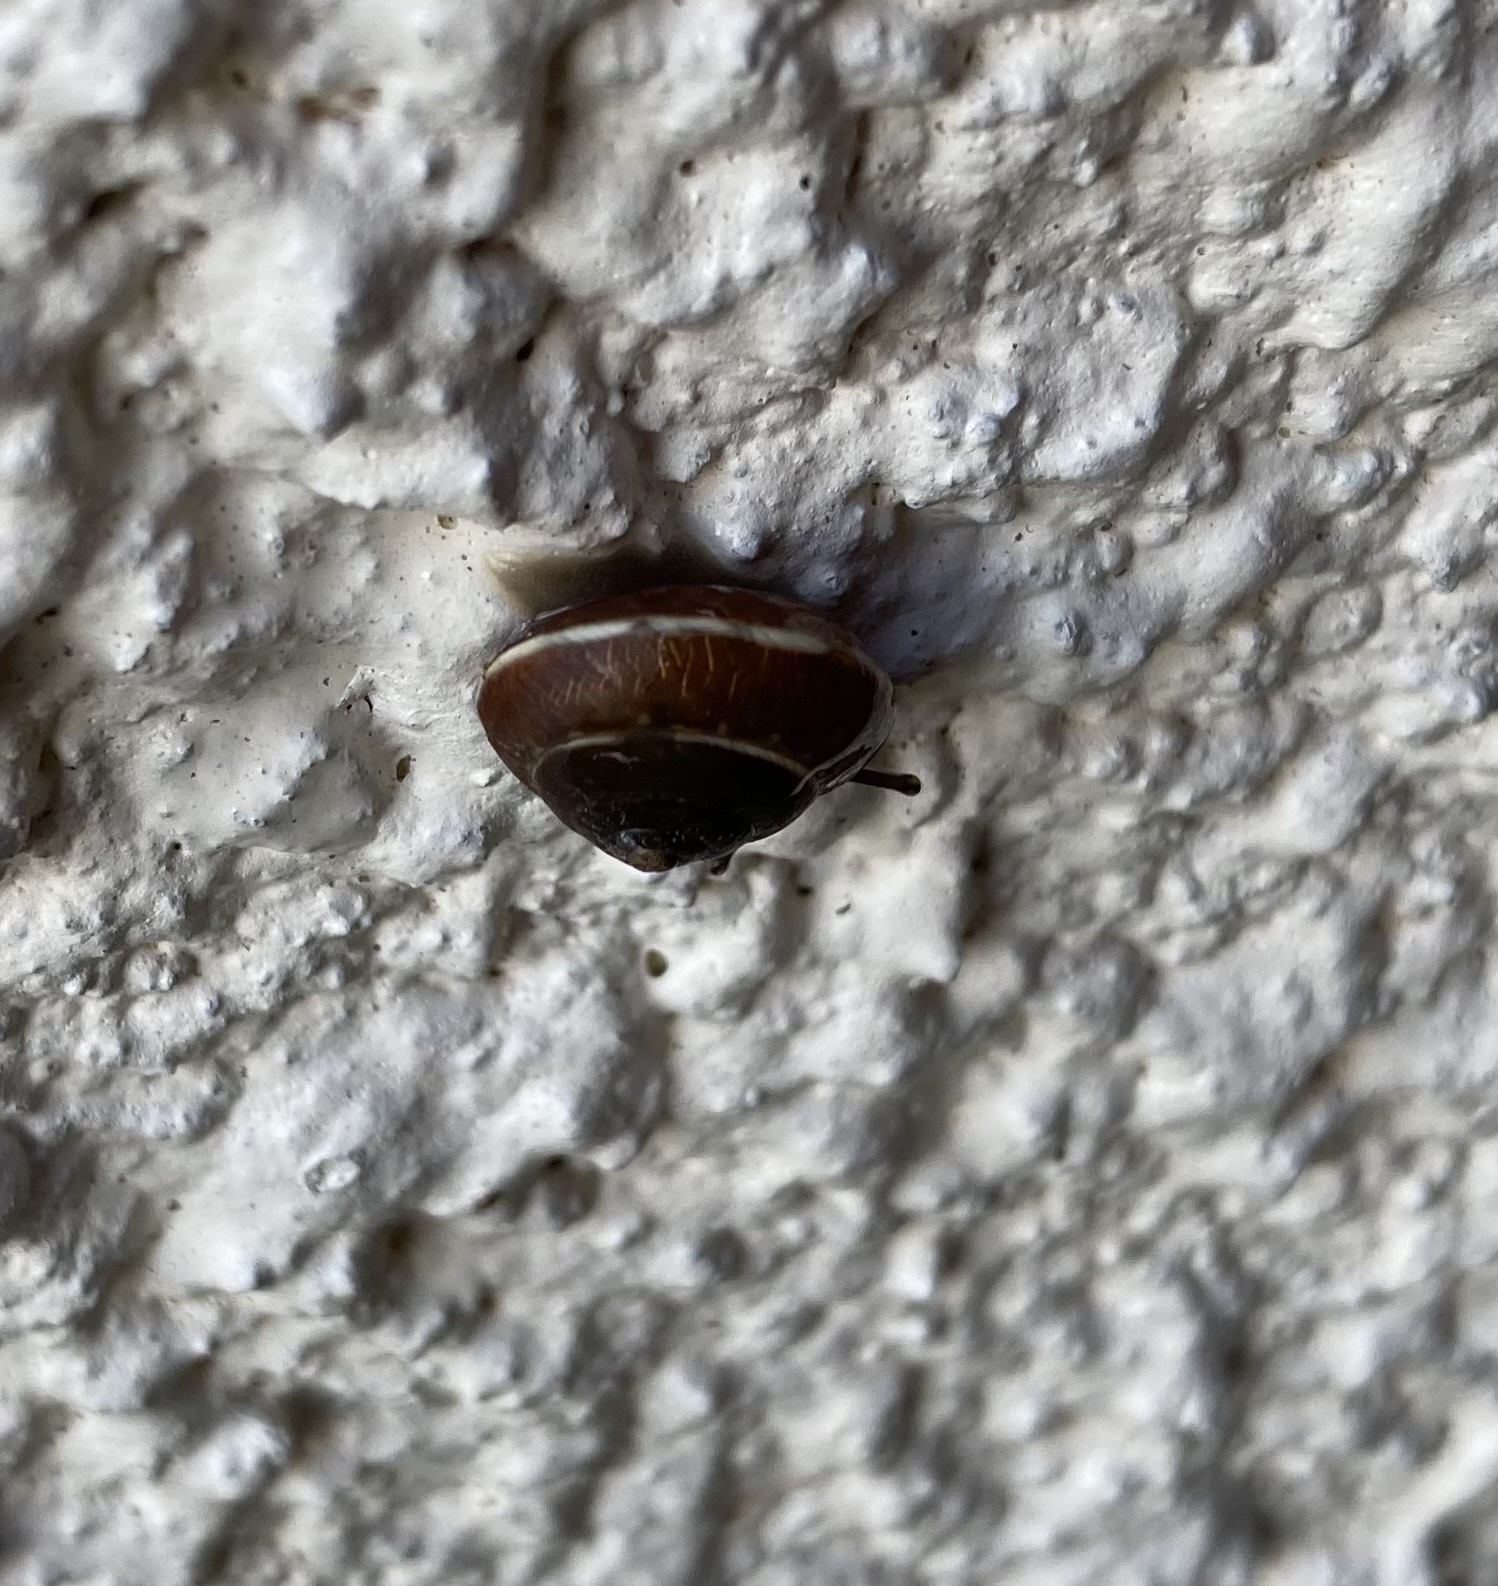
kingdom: Animalia
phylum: Mollusca
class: Gastropoda
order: Stylommatophora
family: Hygromiidae
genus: Hygromia
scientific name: Hygromia cinctella
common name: Girdled snail
